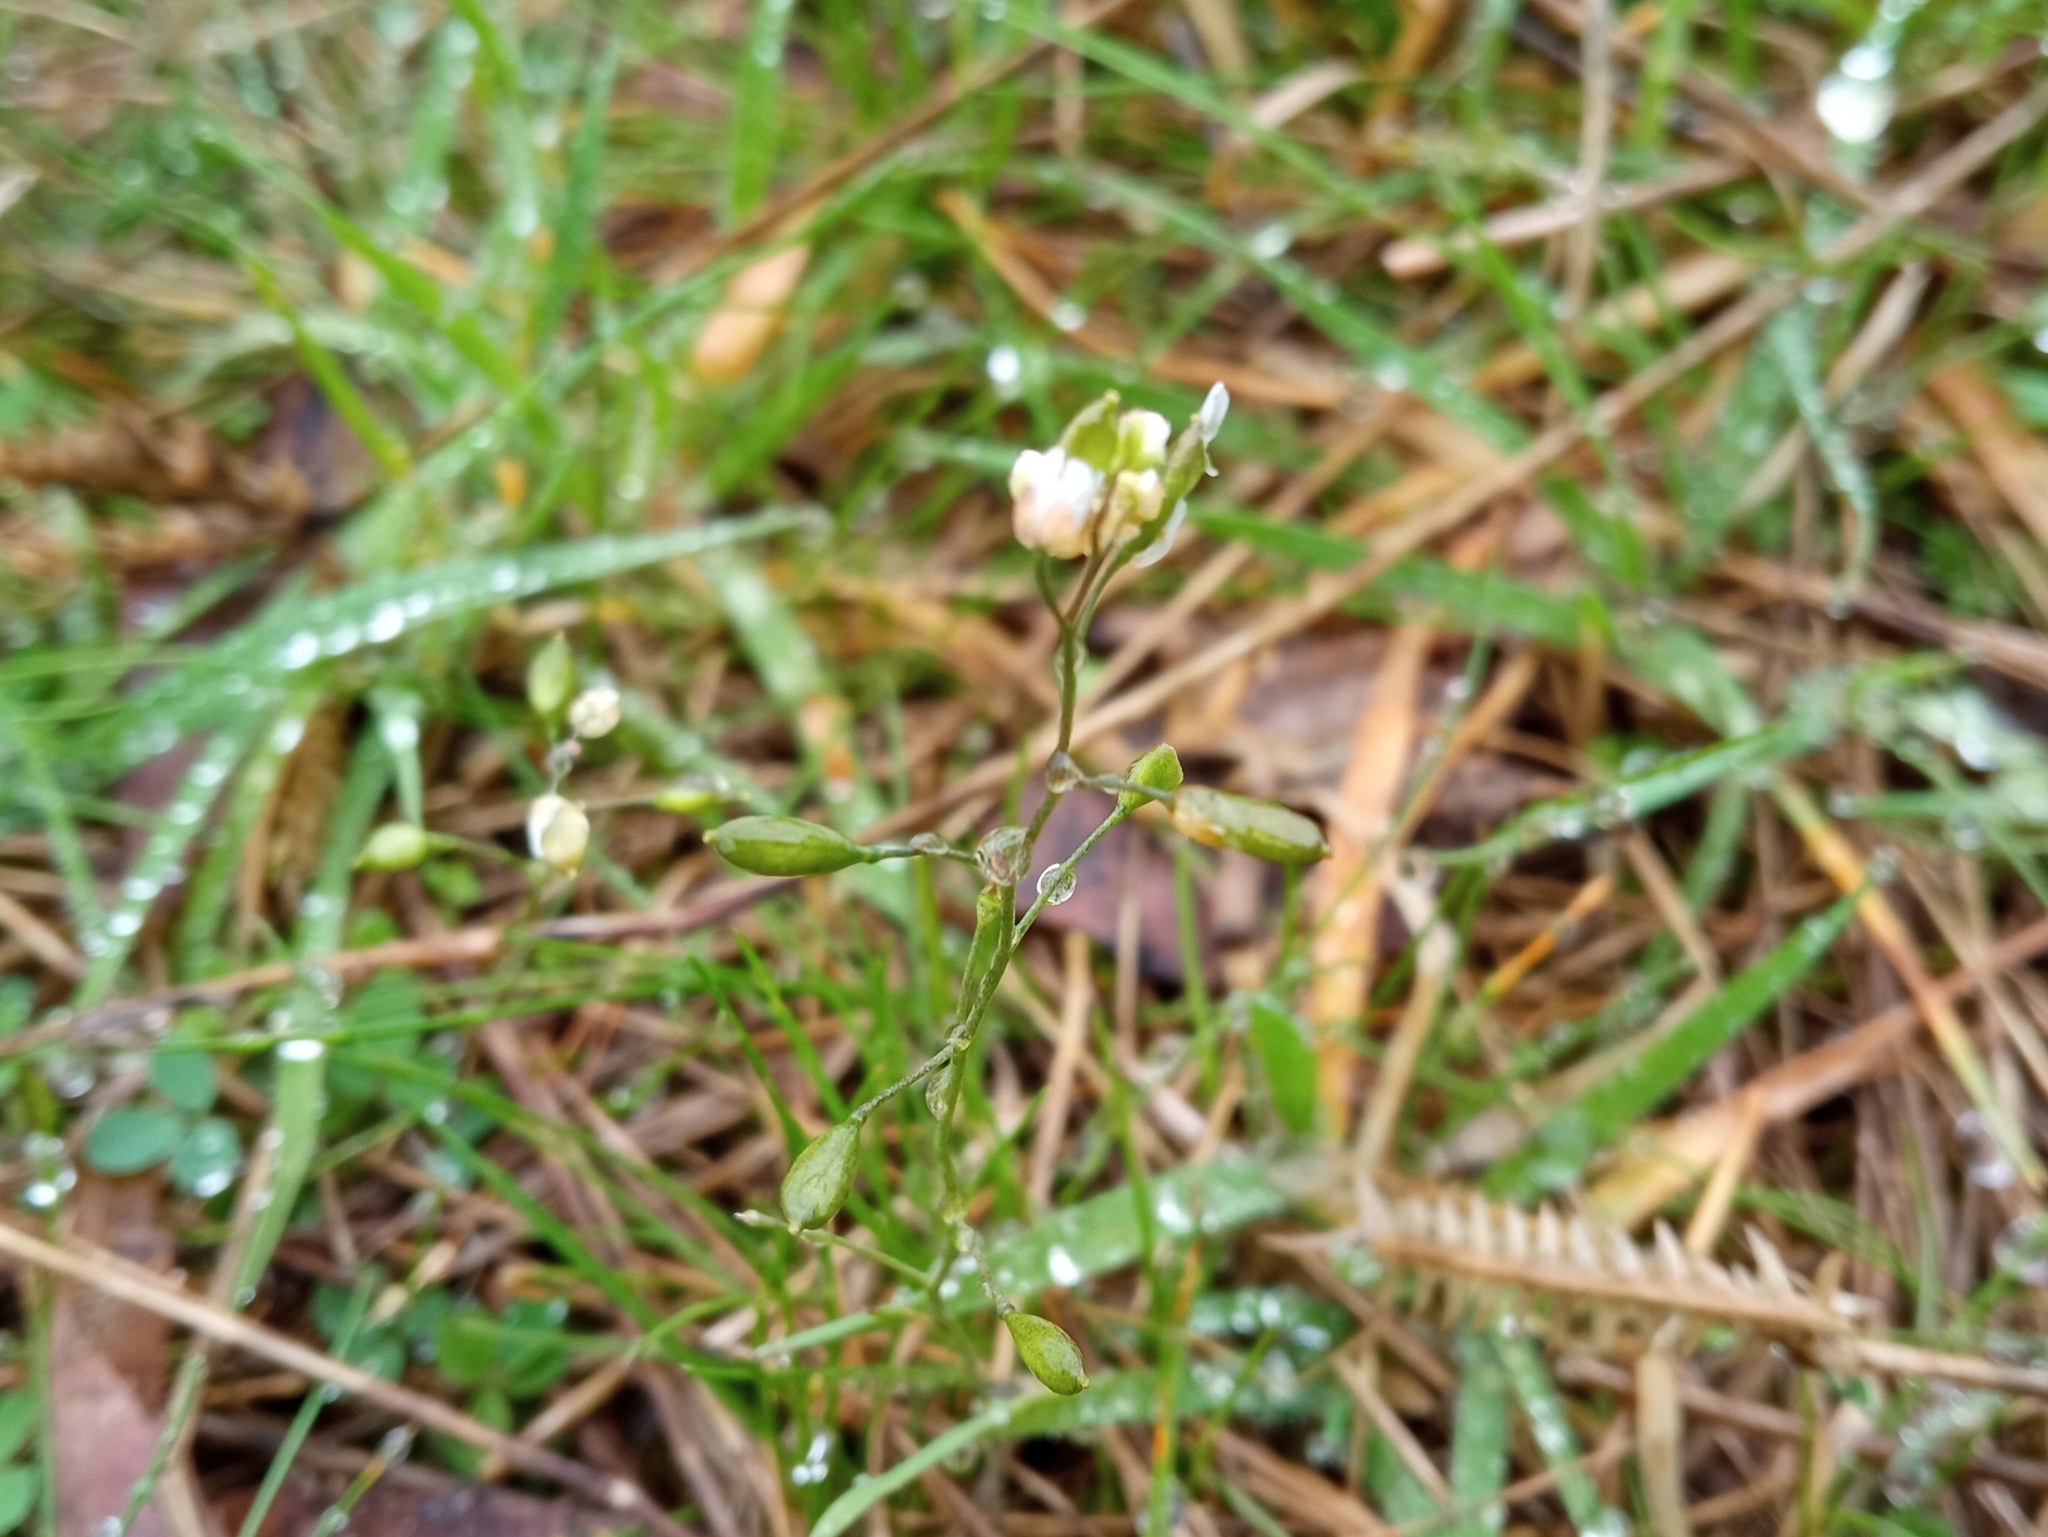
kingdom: Plantae
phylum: Tracheophyta
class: Magnoliopsida
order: Brassicales
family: Brassicaceae
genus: Draba
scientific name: Draba verna
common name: Spring draba
